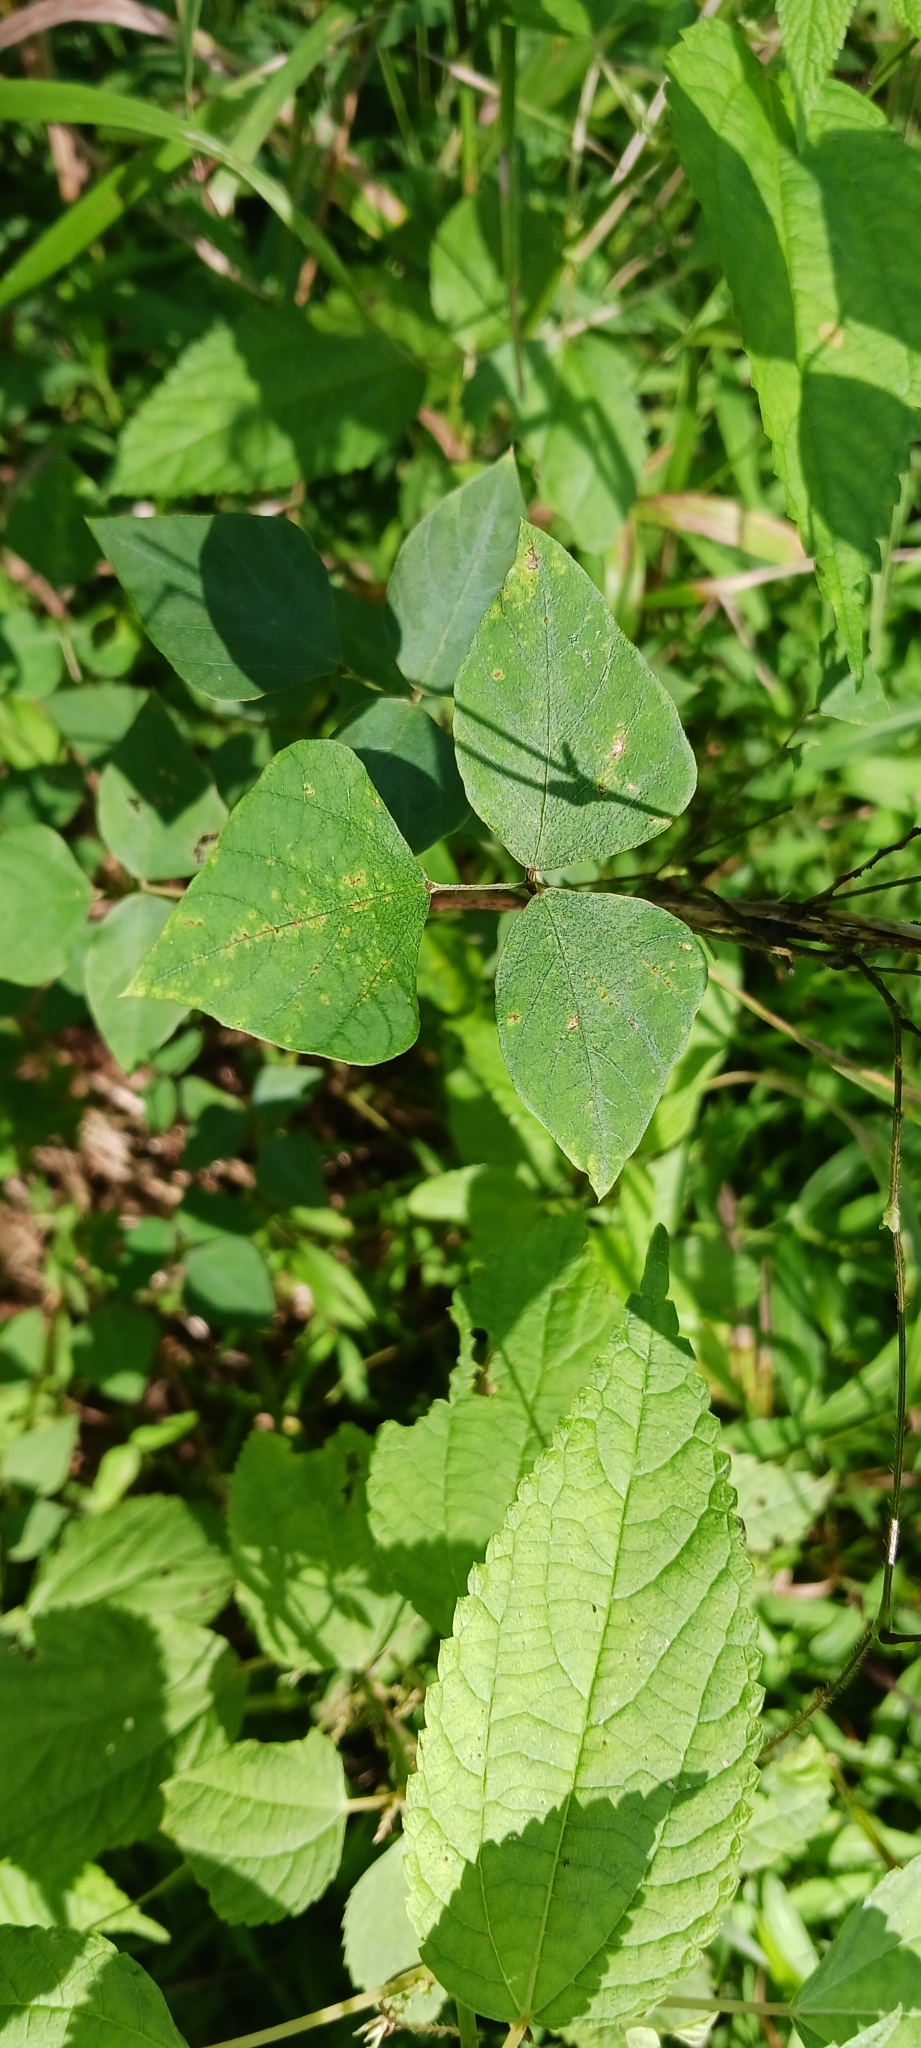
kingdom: Plantae
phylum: Tracheophyta
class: Magnoliopsida
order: Fabales
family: Fabaceae
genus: Amphicarpaea
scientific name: Amphicarpaea bracteata
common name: American hog peanut
